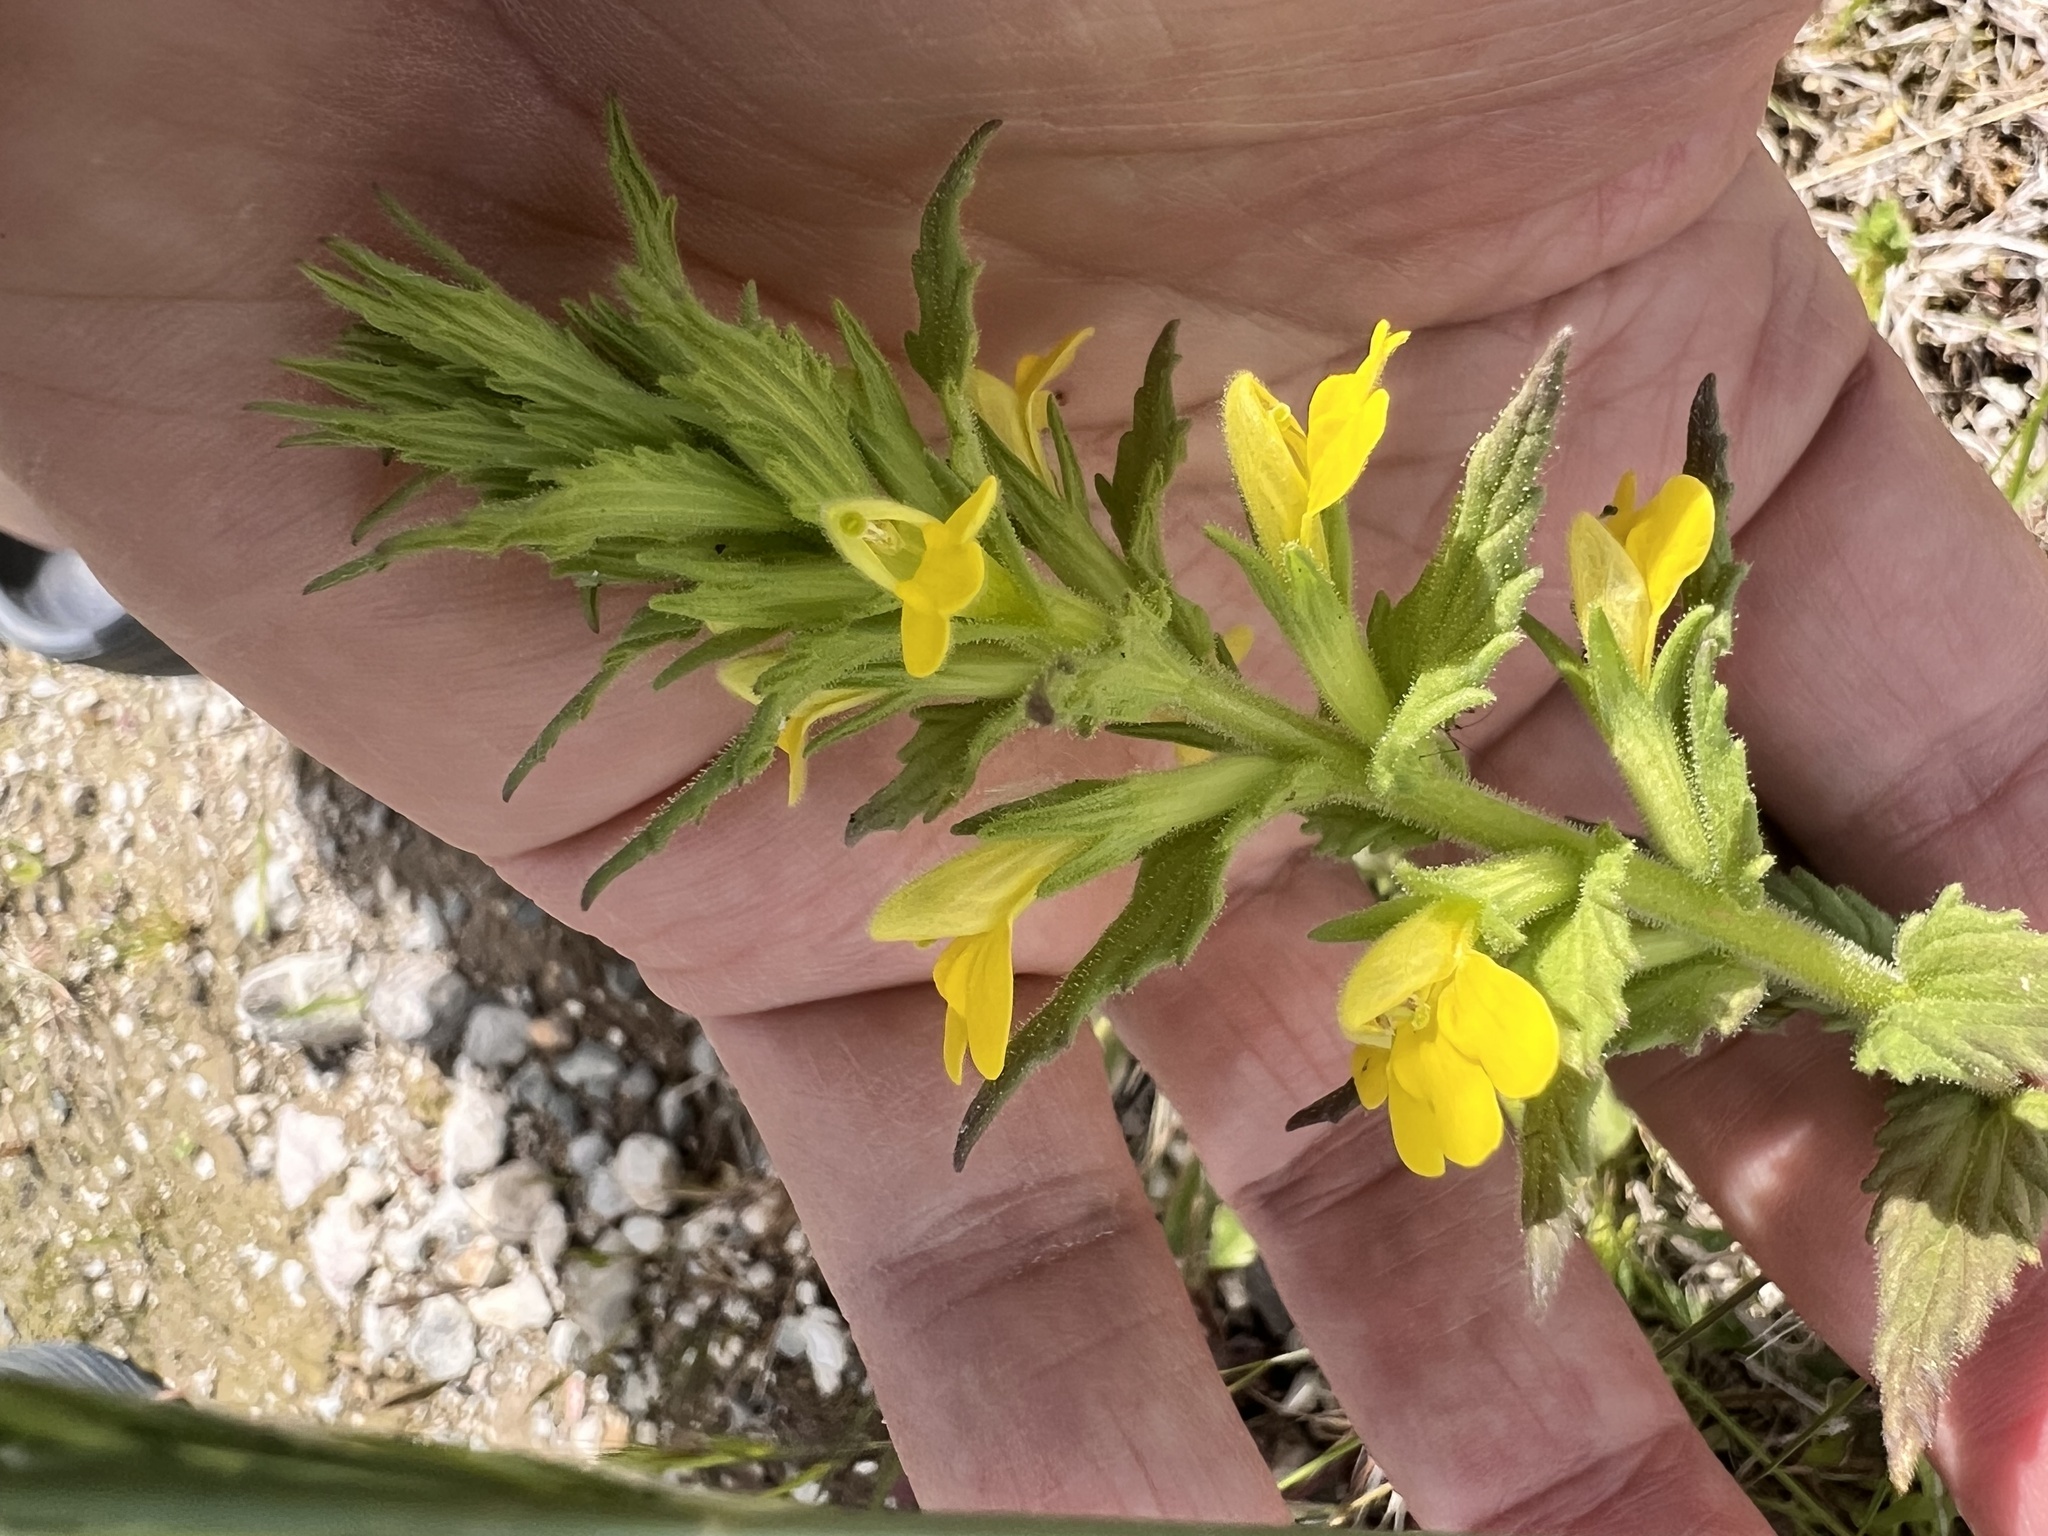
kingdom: Plantae
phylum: Tracheophyta
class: Magnoliopsida
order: Lamiales
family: Orobanchaceae
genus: Bellardia
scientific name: Bellardia viscosa
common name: Sticky parentucellia
